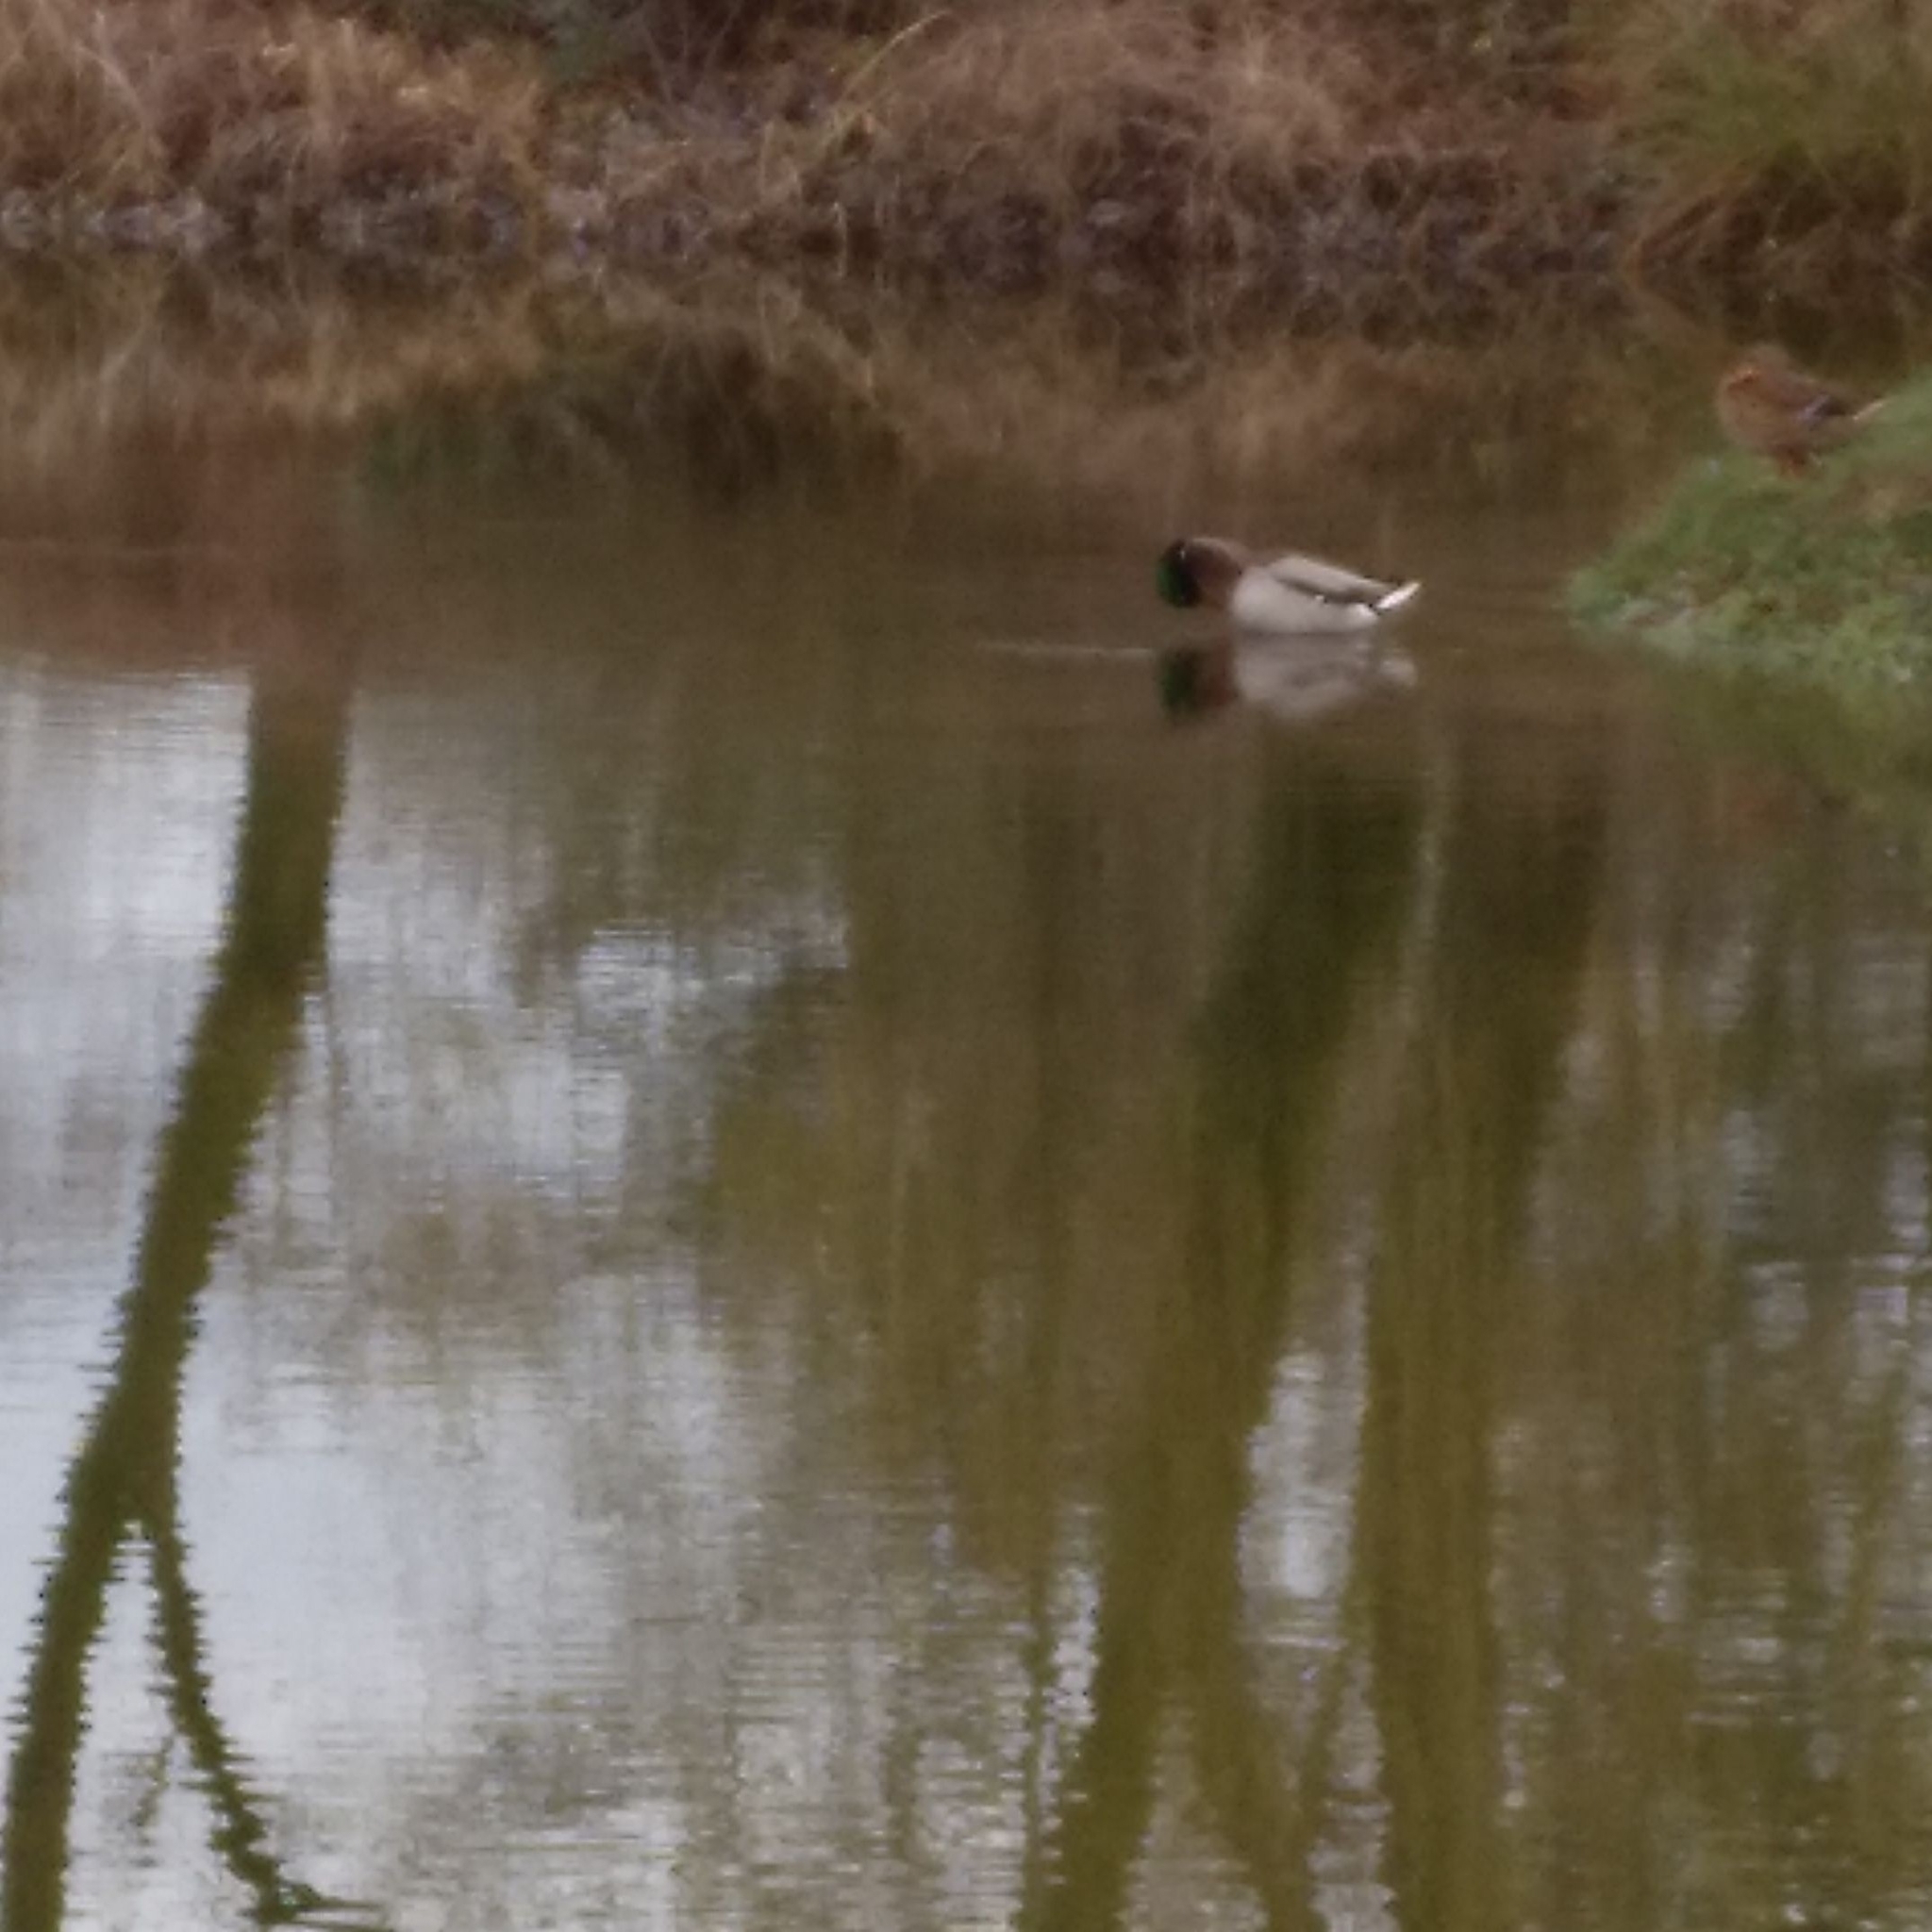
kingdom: Animalia
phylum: Chordata
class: Aves
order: Anseriformes
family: Anatidae
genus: Anas
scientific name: Anas platyrhynchos
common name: Mallard
